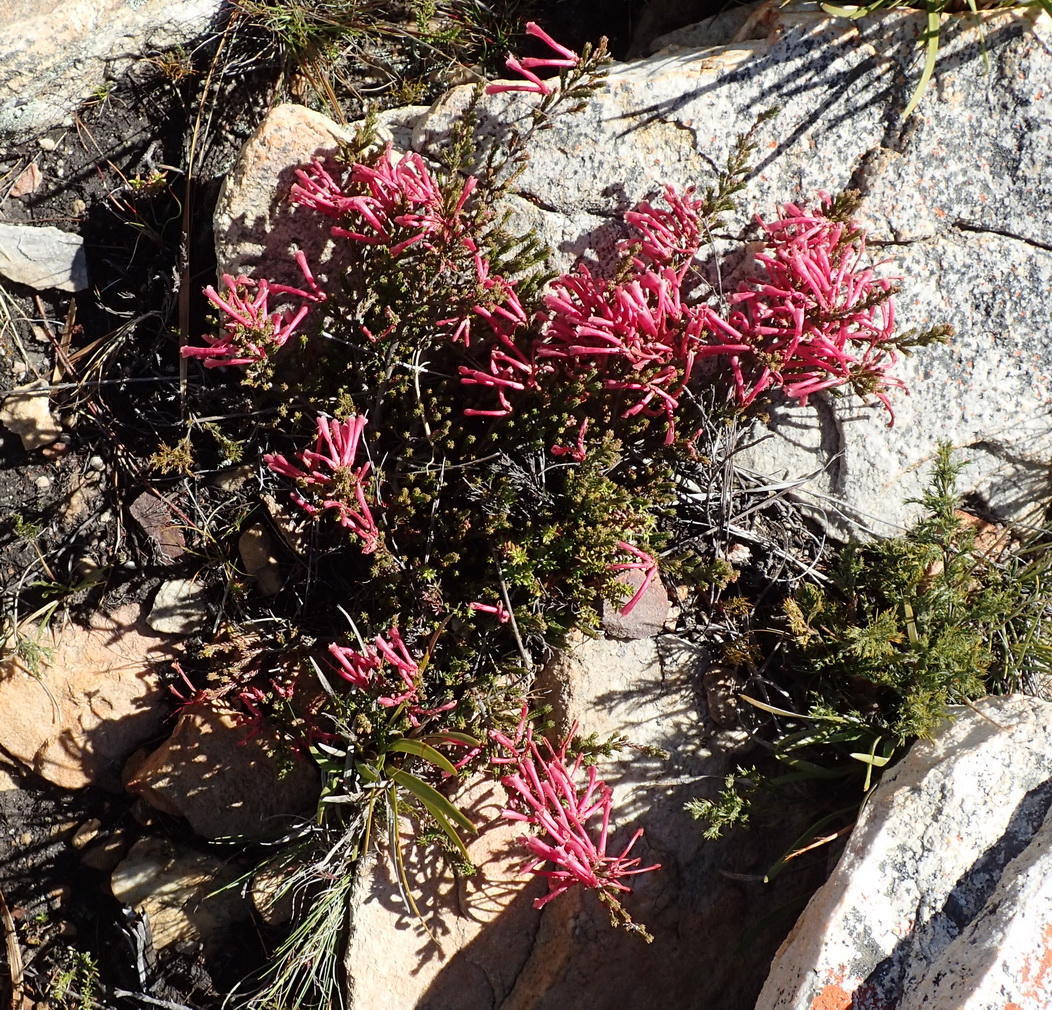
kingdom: Plantae
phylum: Tracheophyta
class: Magnoliopsida
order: Ericales
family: Ericaceae
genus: Erica
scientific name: Erica discolor
